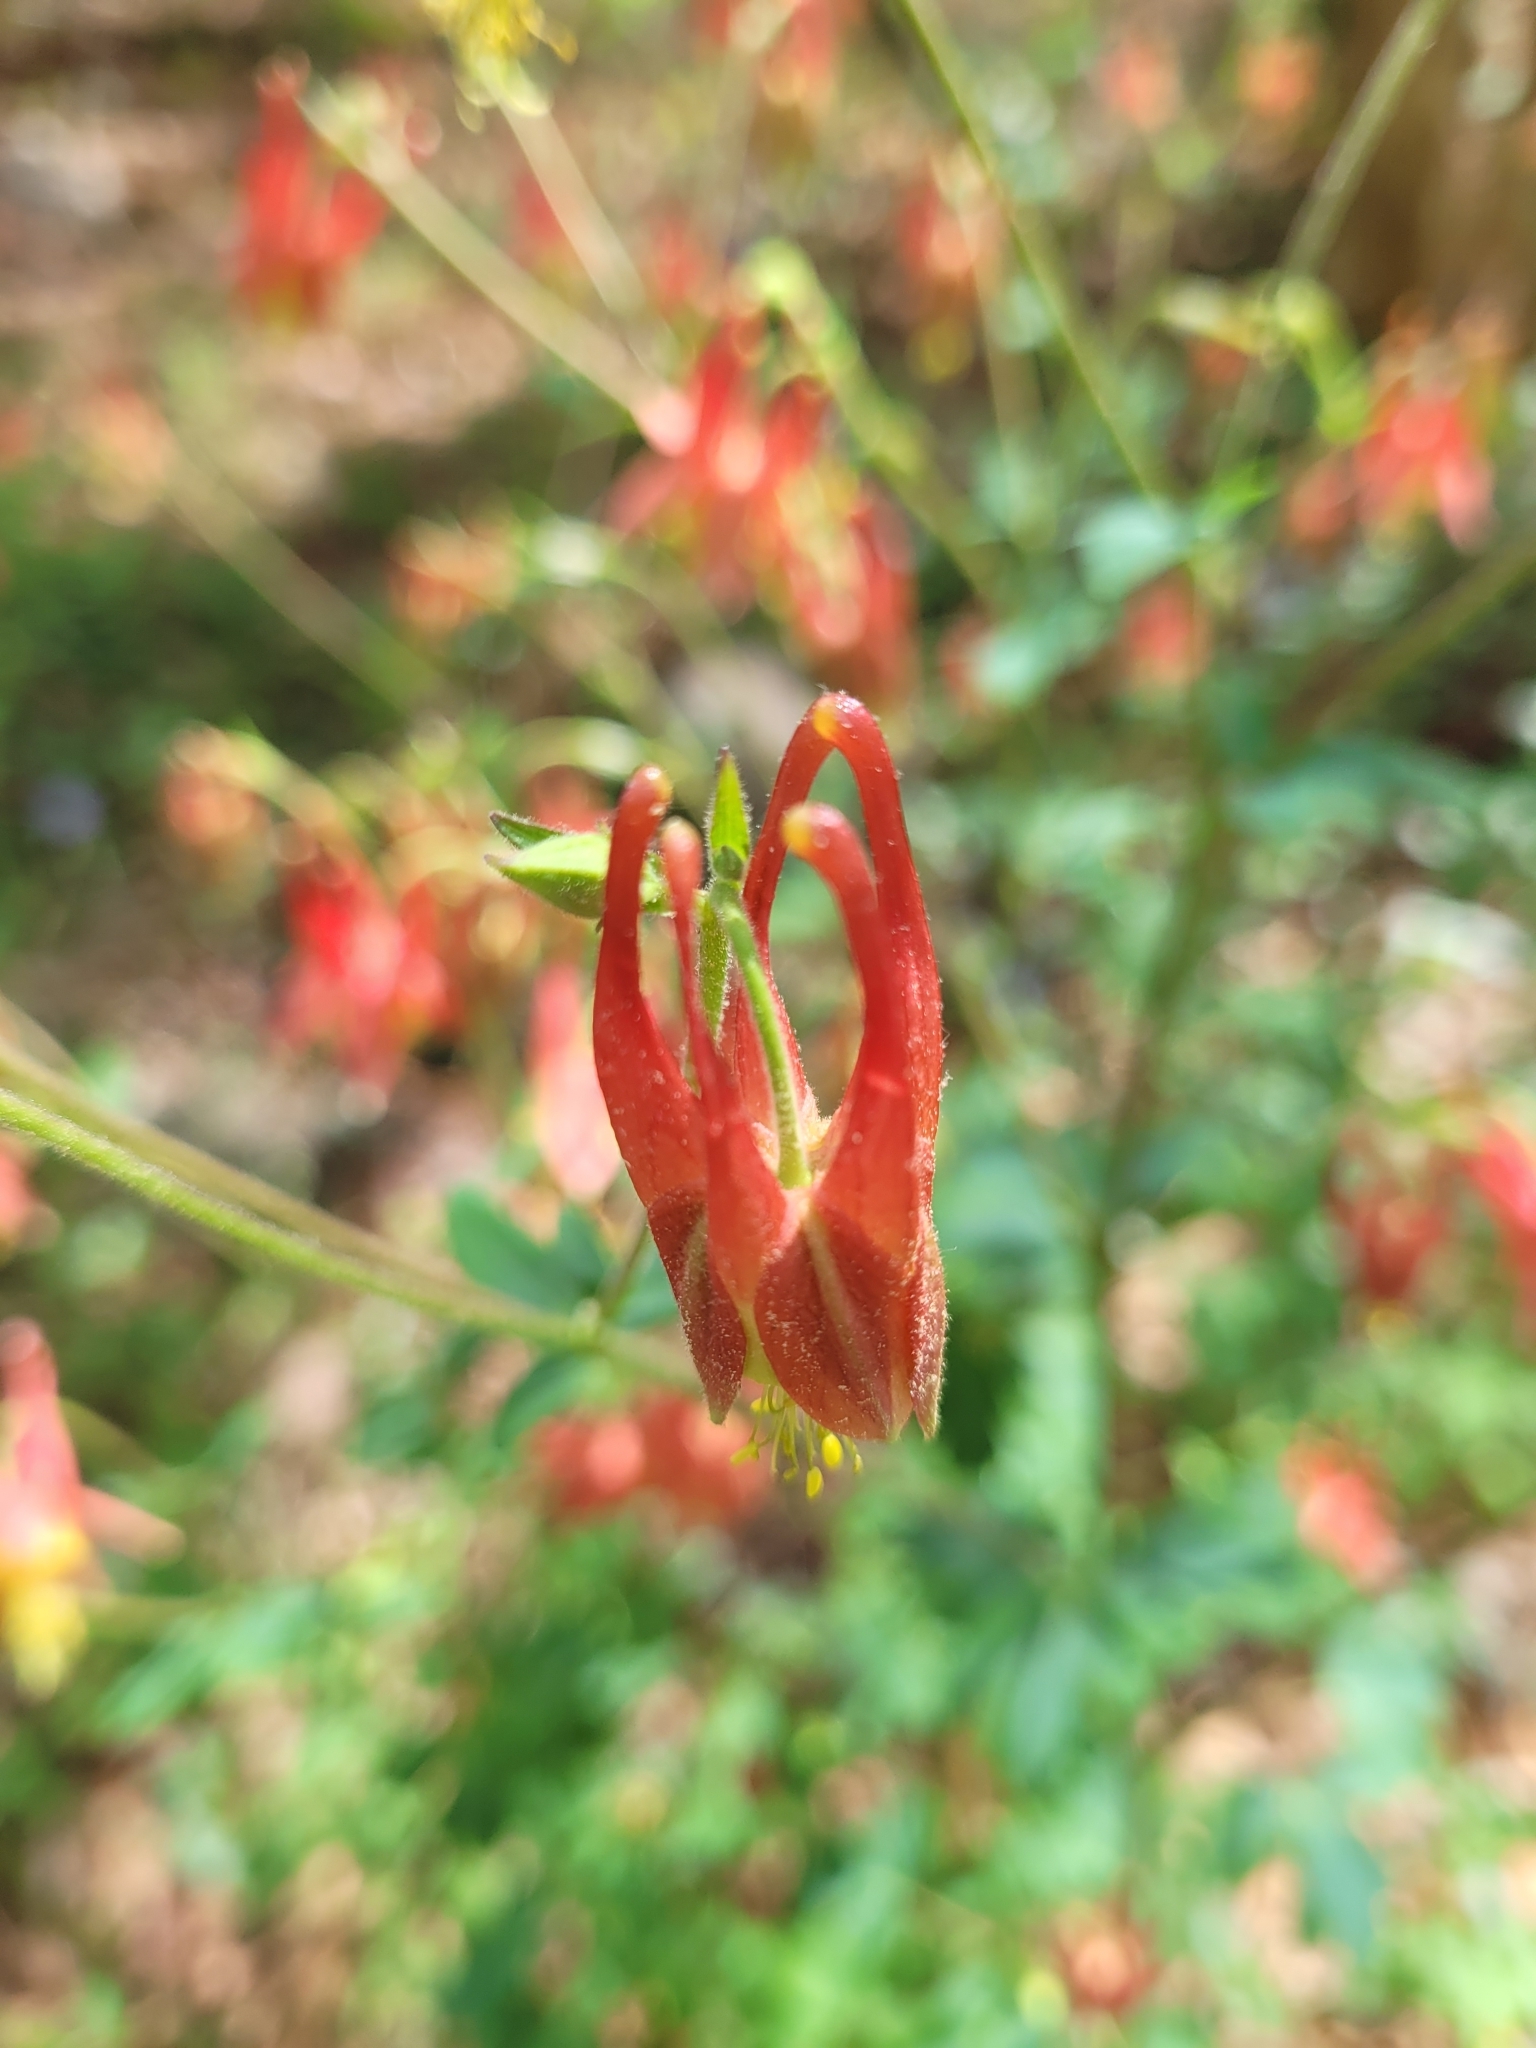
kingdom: Plantae
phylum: Tracheophyta
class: Magnoliopsida
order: Ranunculales
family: Ranunculaceae
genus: Aquilegia
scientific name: Aquilegia canadensis
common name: American columbine
